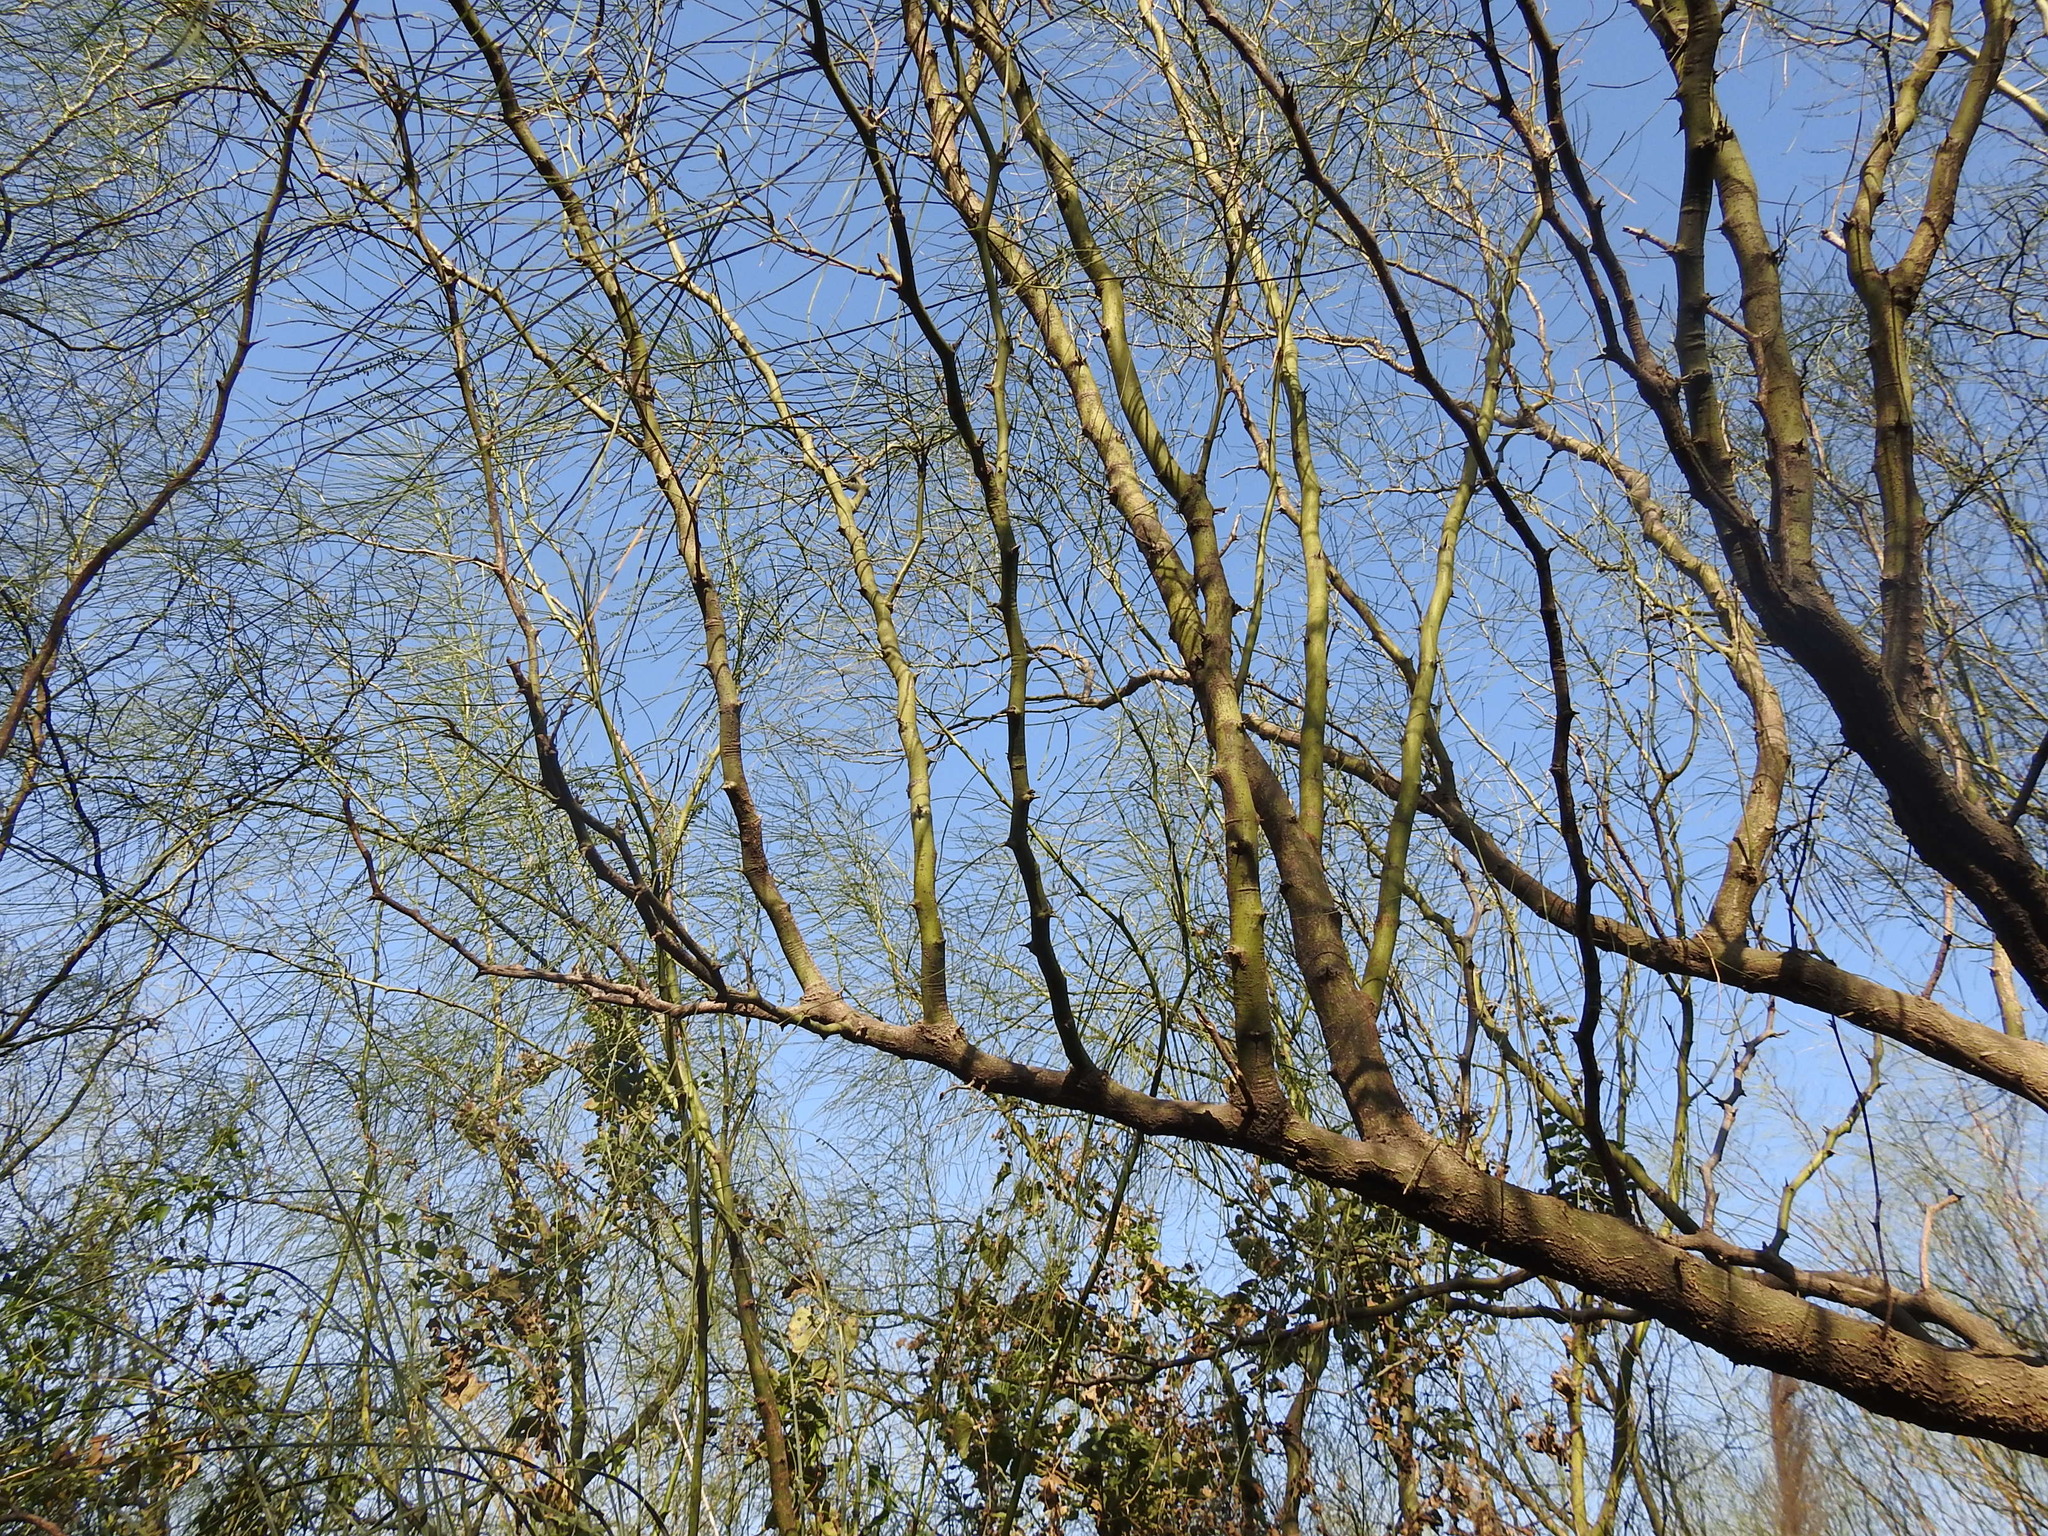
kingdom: Plantae
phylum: Tracheophyta
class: Magnoliopsida
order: Fabales
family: Fabaceae
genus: Parkinsonia
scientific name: Parkinsonia aculeata
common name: Jerusalem thorn
